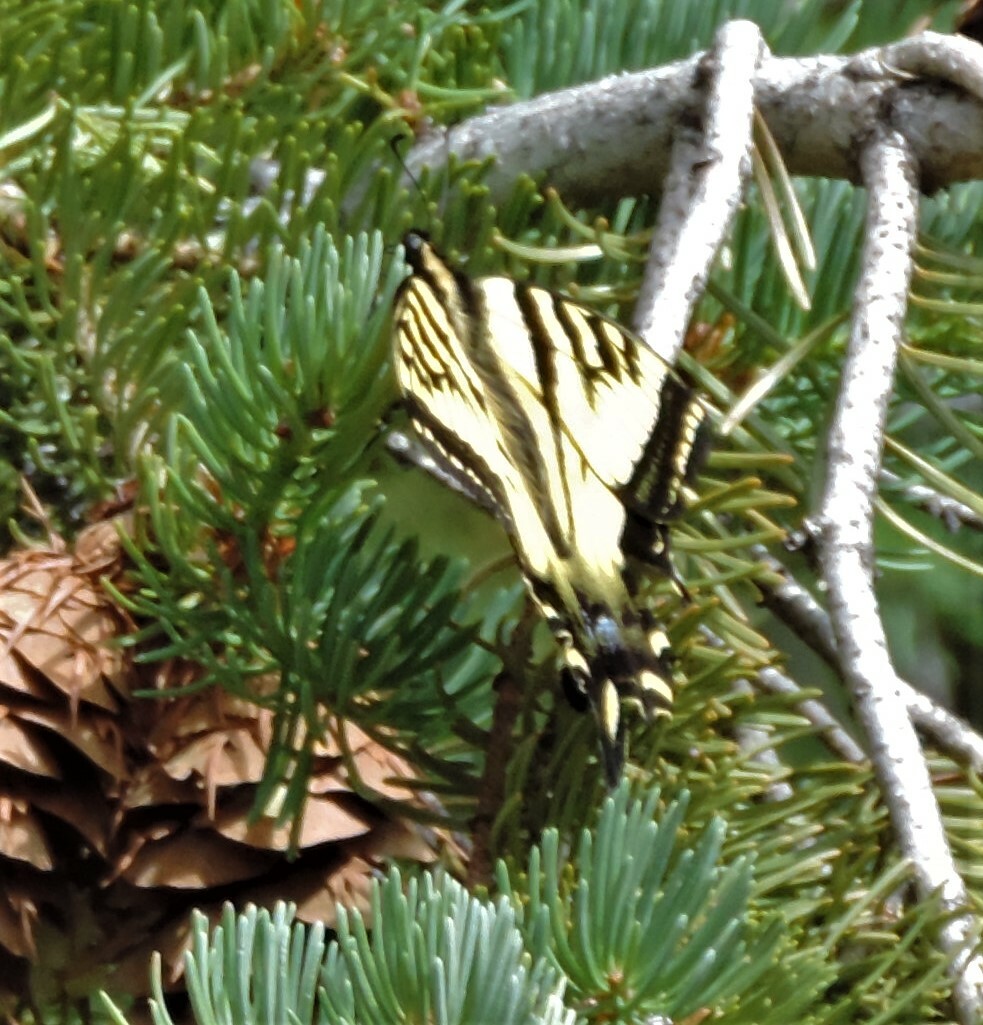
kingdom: Animalia
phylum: Arthropoda
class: Insecta
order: Lepidoptera
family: Papilionidae
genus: Papilio
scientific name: Papilio rutulus
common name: Western tiger swallowtail
